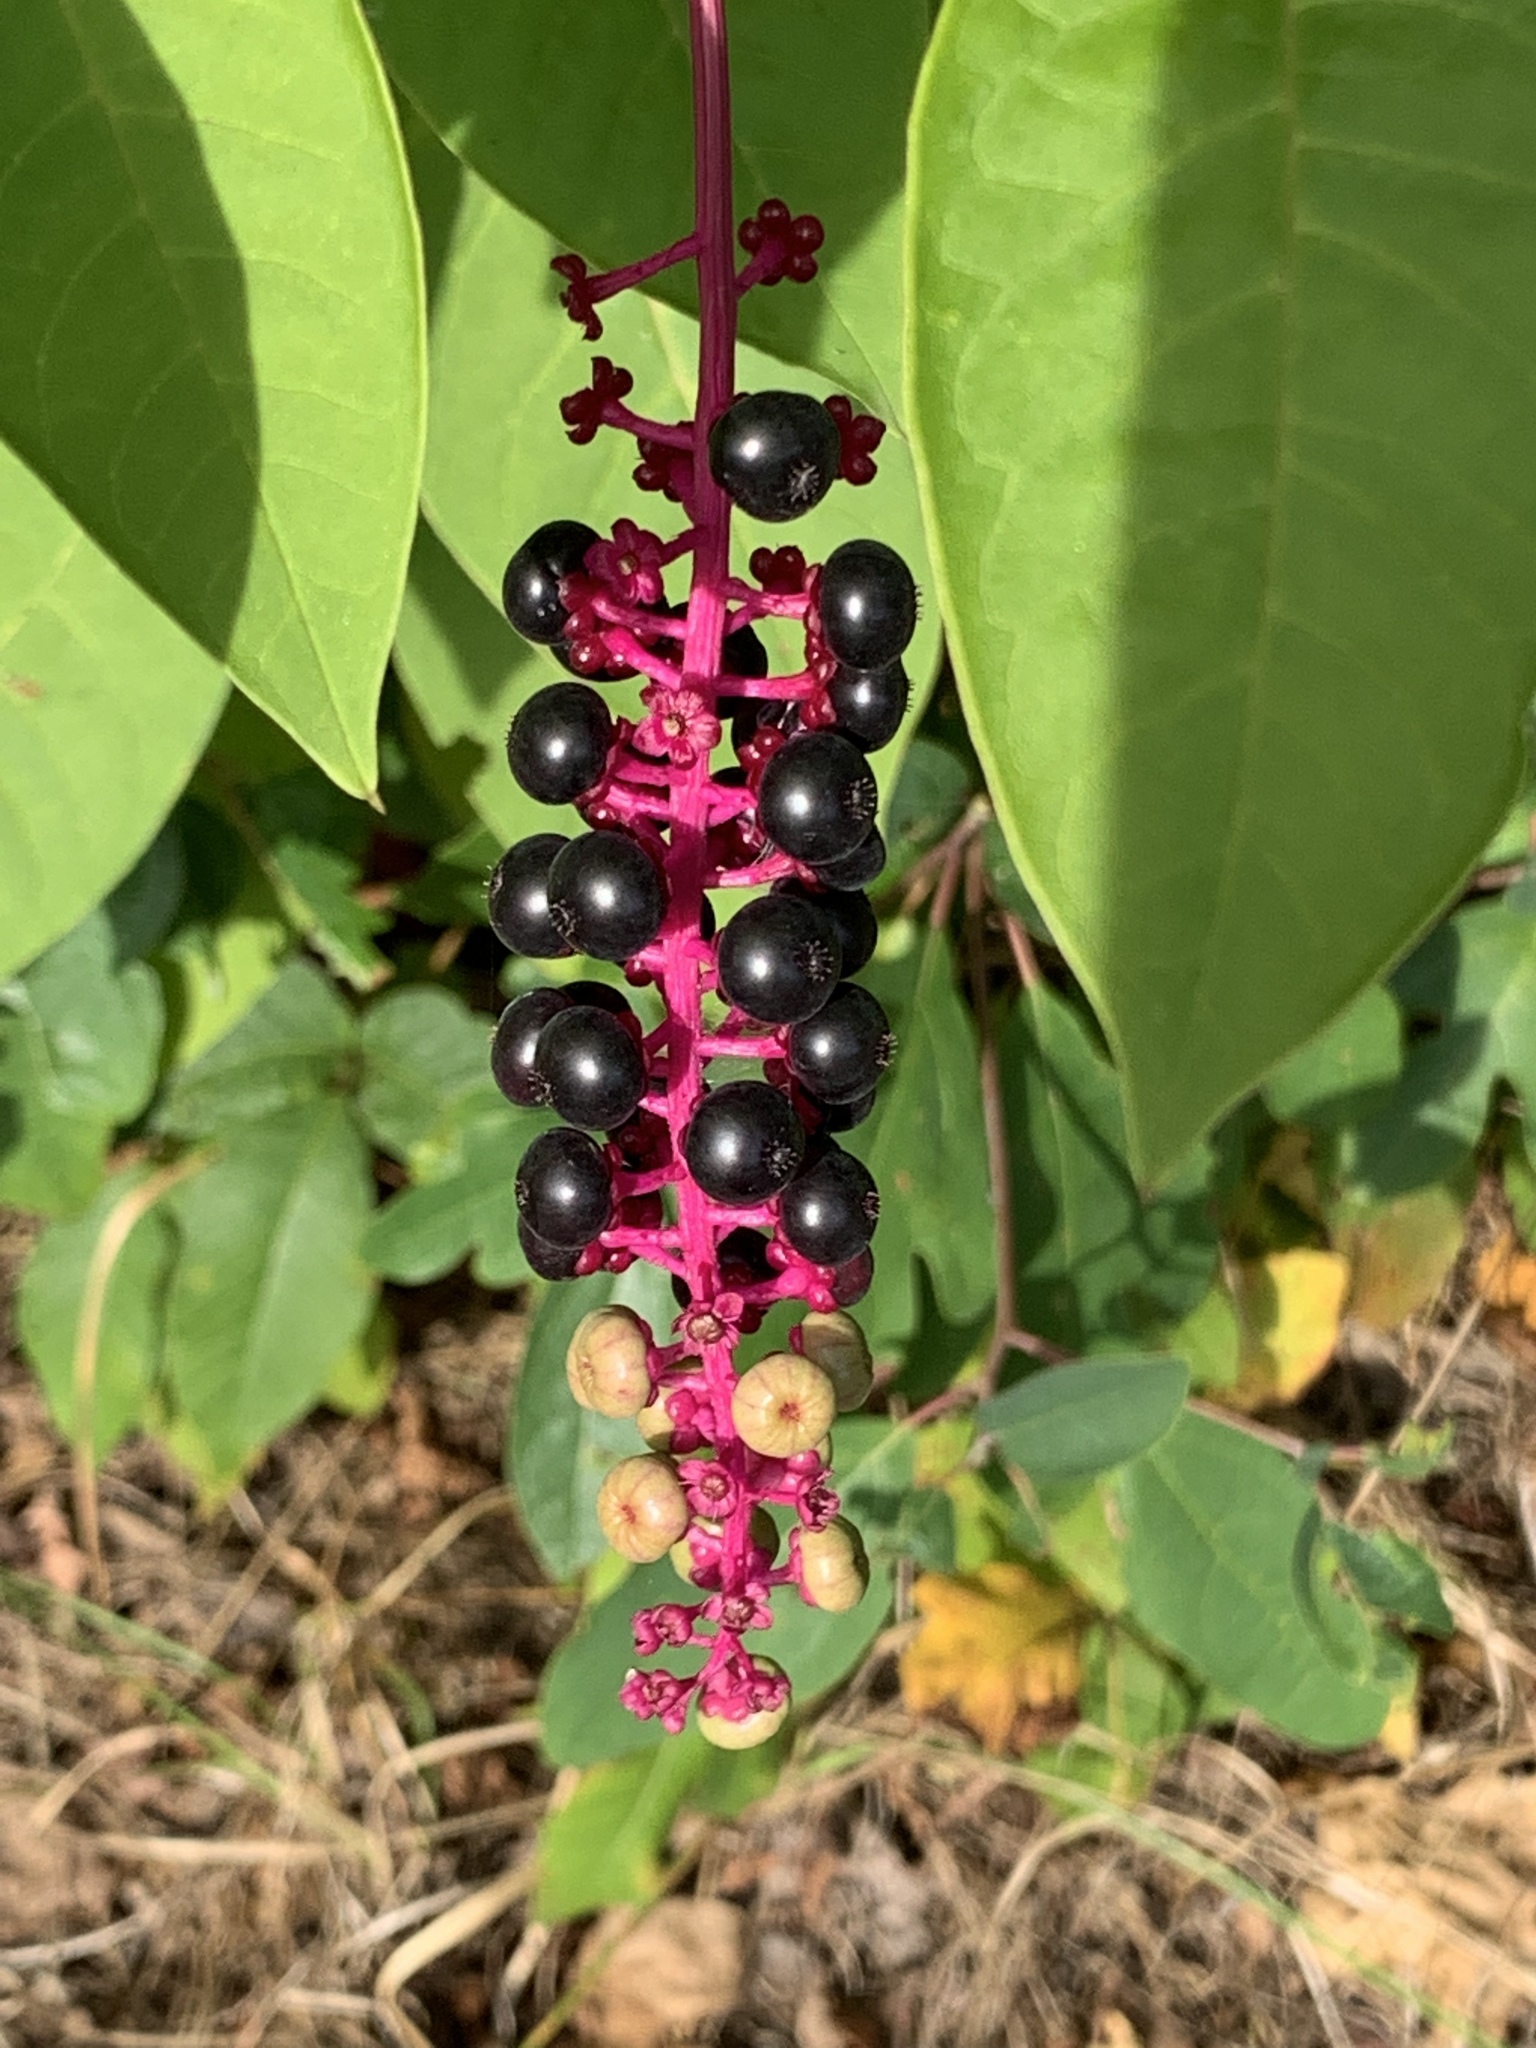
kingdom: Plantae
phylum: Tracheophyta
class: Magnoliopsida
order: Caryophyllales
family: Phytolaccaceae
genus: Phytolacca
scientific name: Phytolacca americana
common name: American pokeweed
